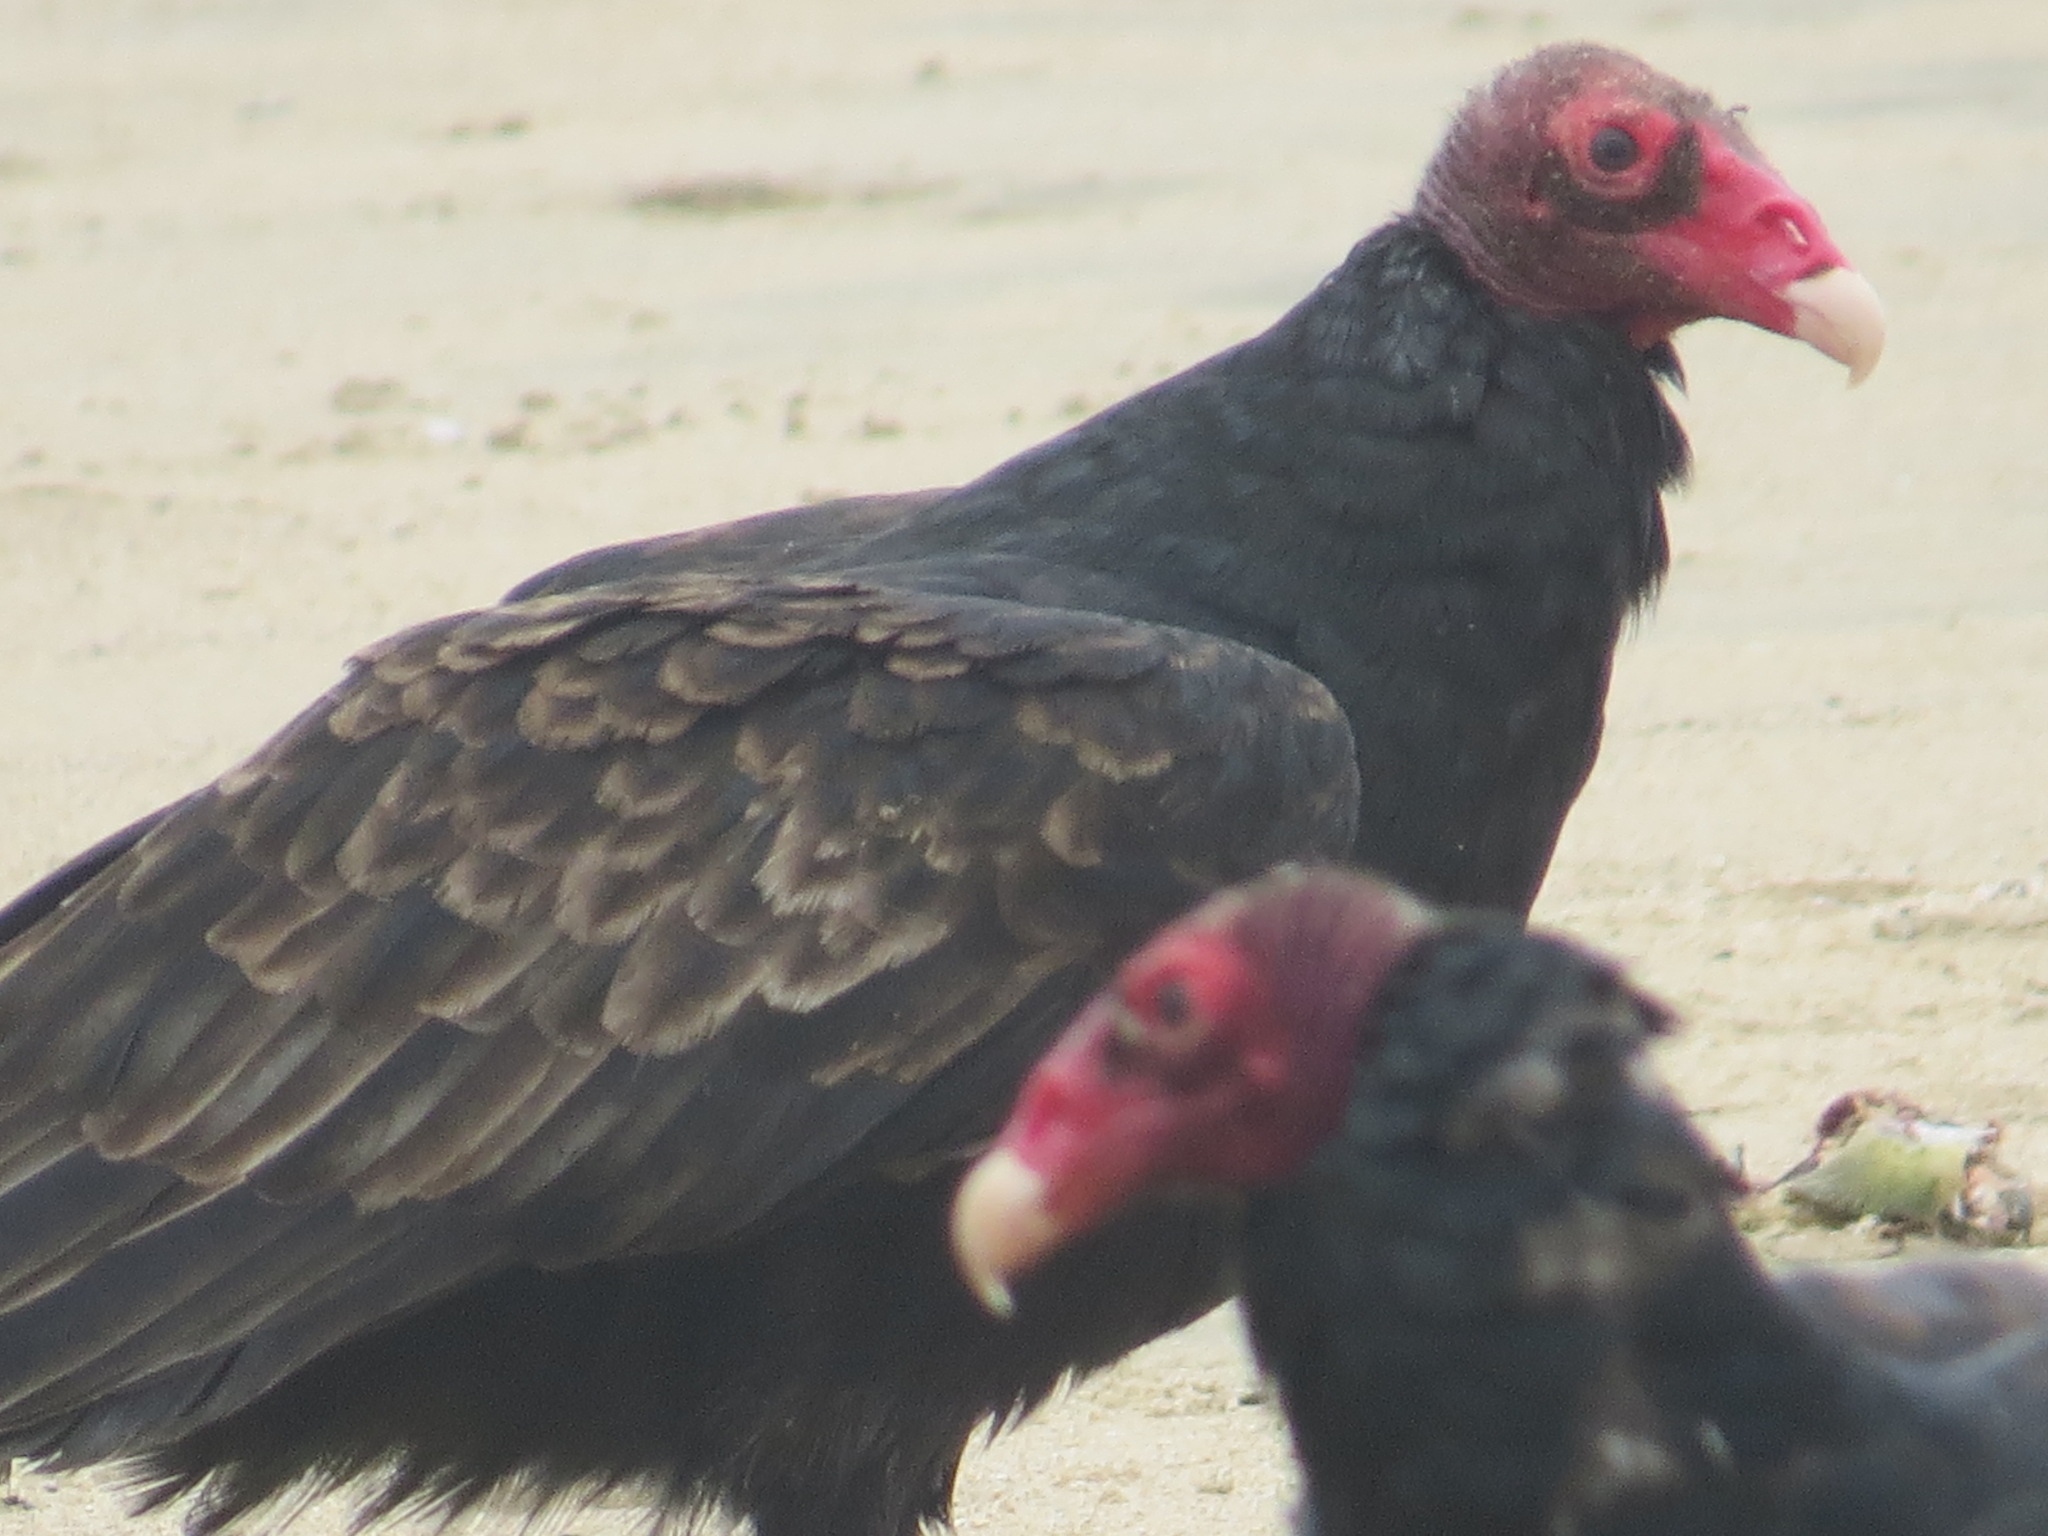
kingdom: Animalia
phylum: Chordata
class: Aves
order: Accipitriformes
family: Cathartidae
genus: Cathartes
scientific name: Cathartes aura
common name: Turkey vulture
